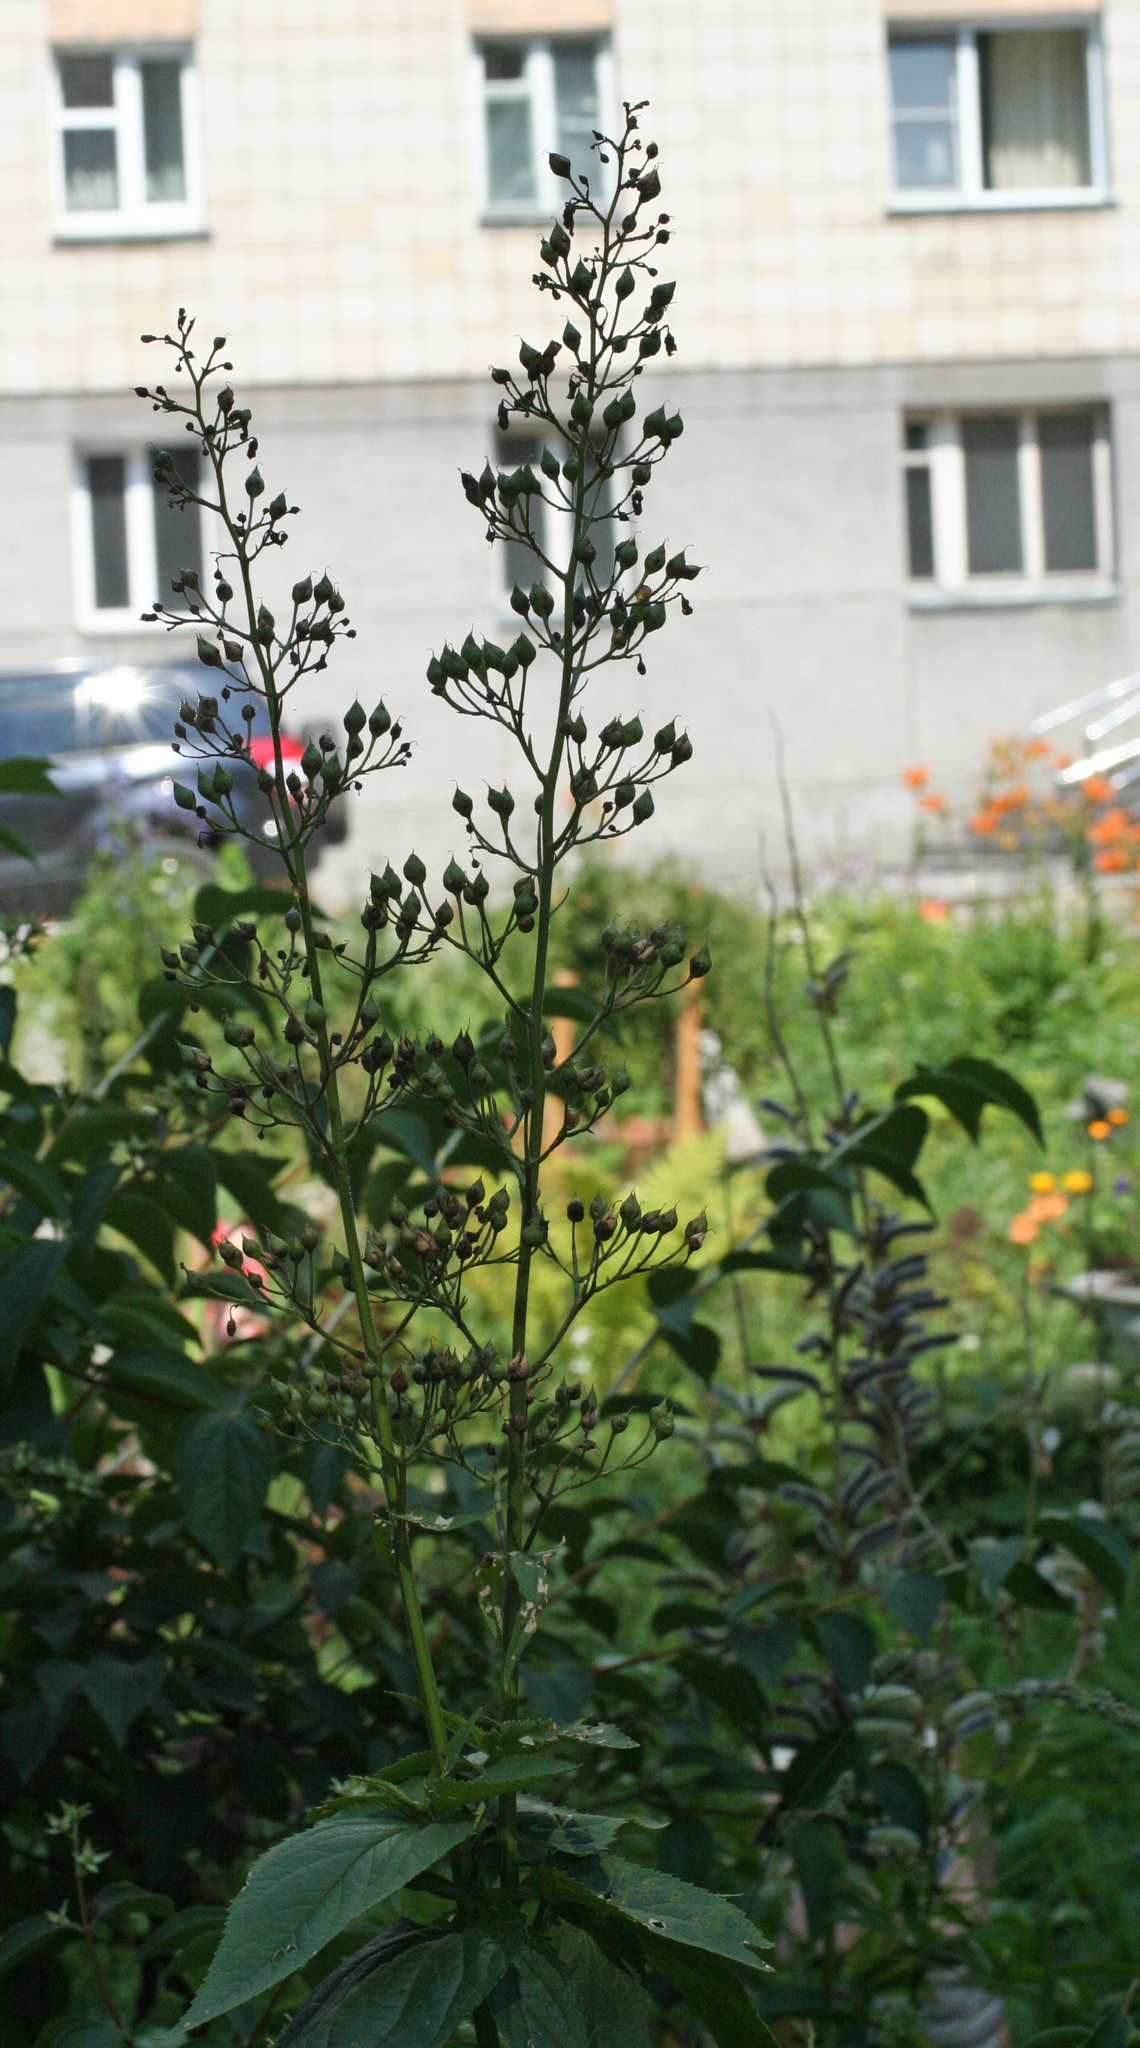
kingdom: Plantae
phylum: Tracheophyta
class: Magnoliopsida
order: Lamiales
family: Scrophulariaceae
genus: Scrophularia
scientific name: Scrophularia nodosa
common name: Common figwort
